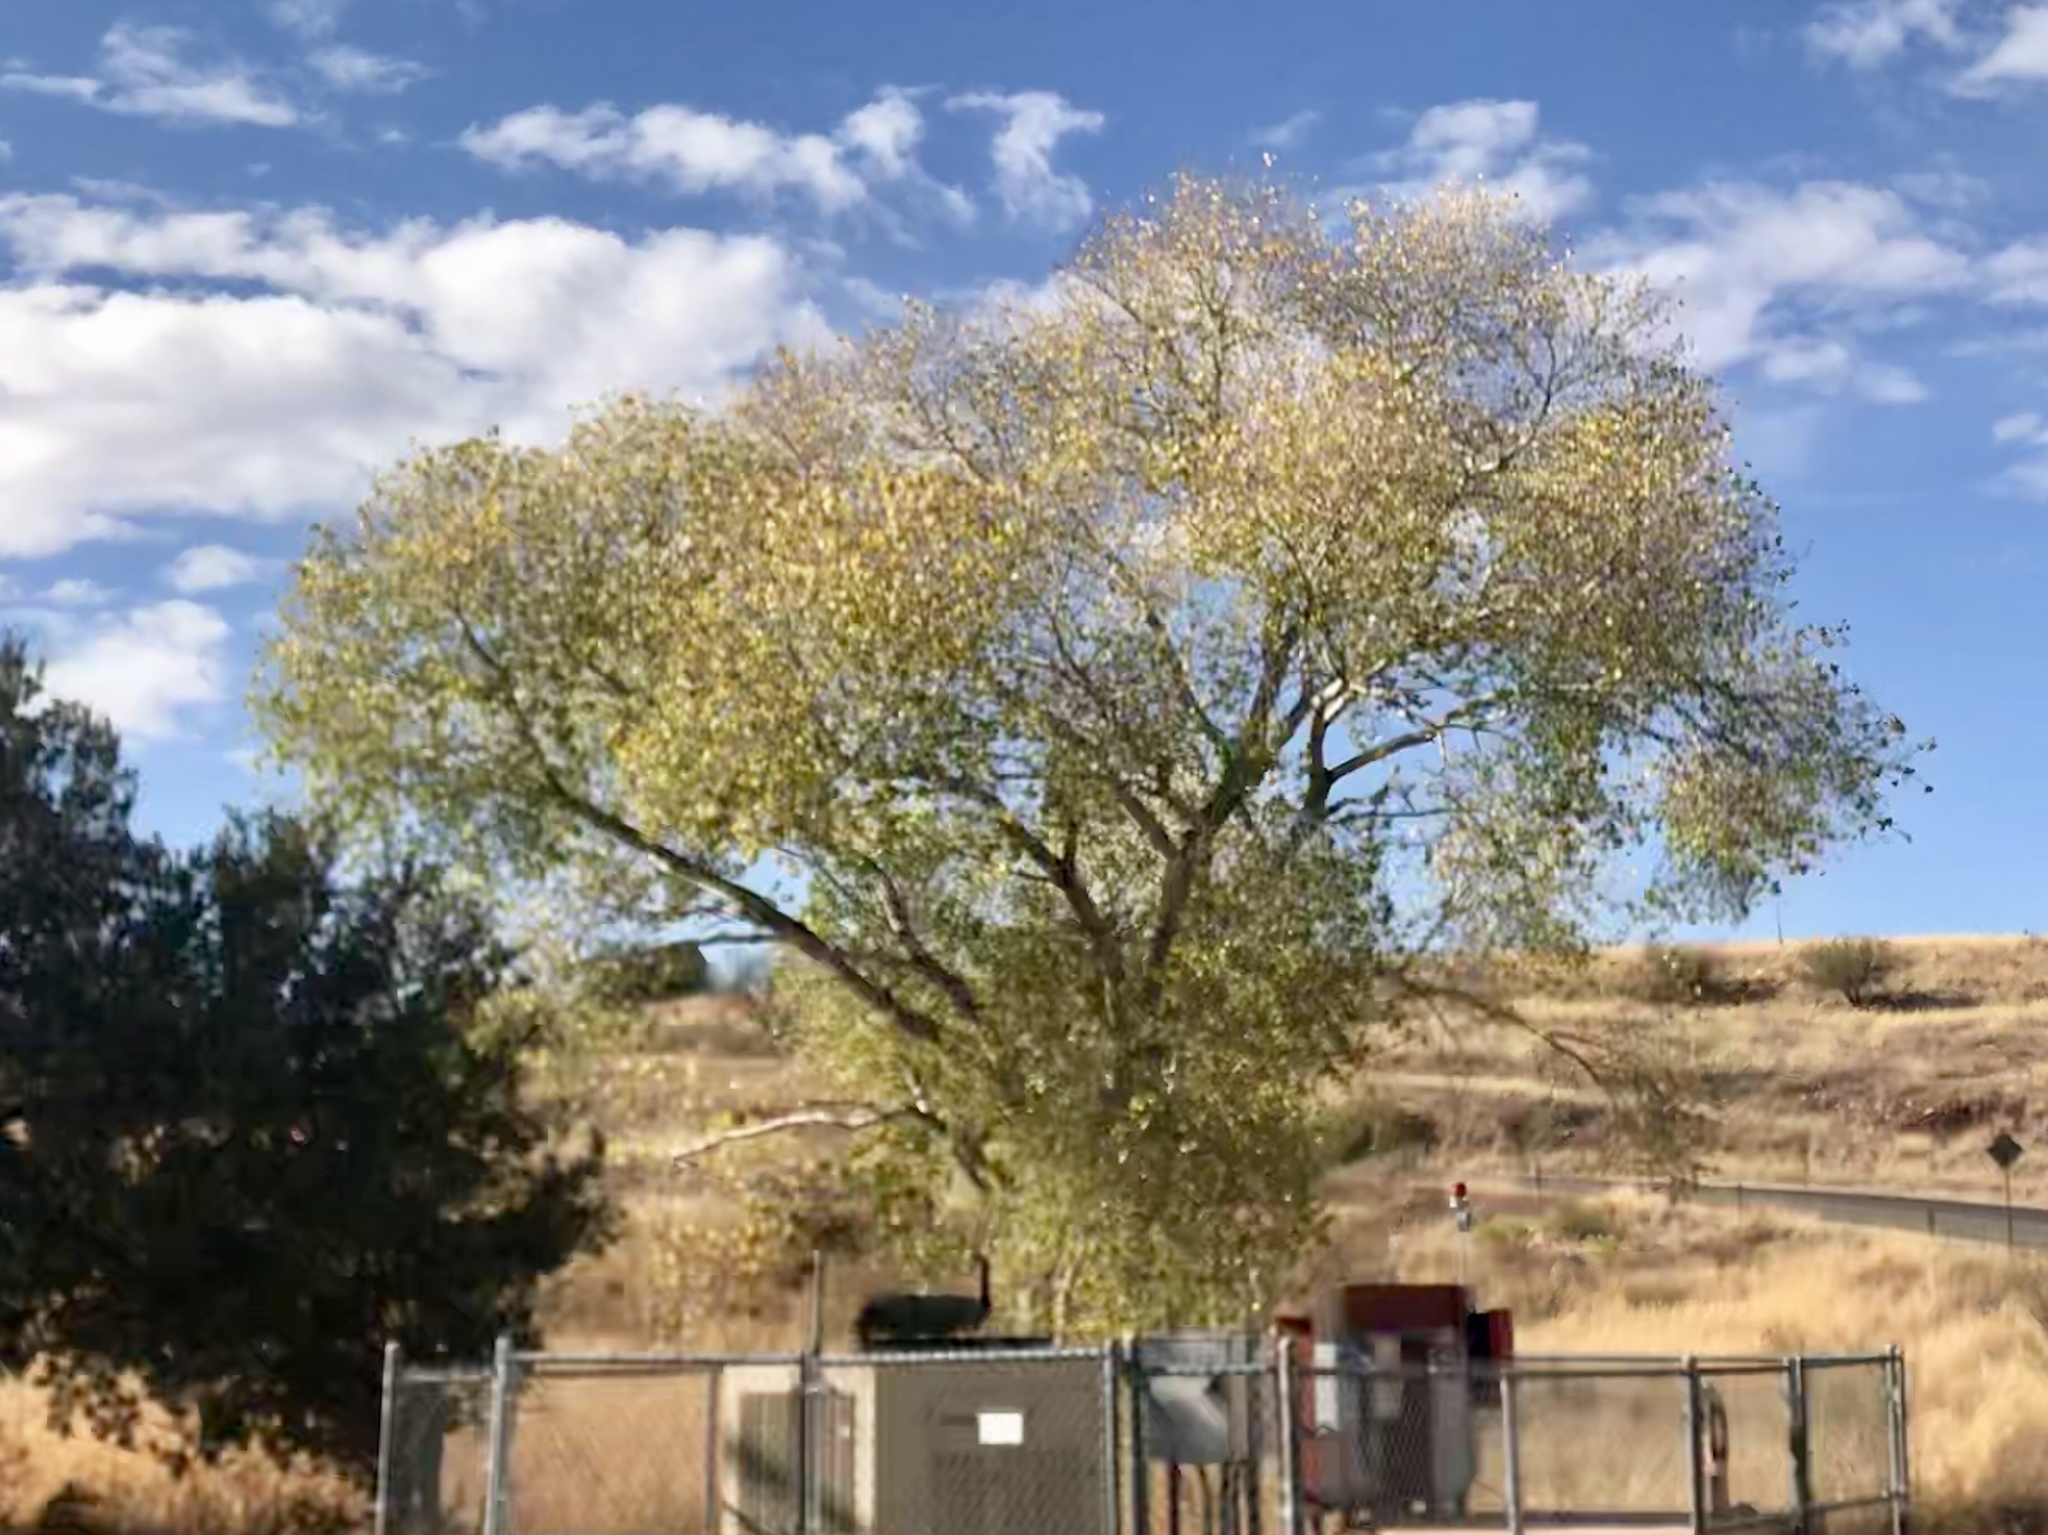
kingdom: Plantae
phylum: Tracheophyta
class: Magnoliopsida
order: Malpighiales
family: Salicaceae
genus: Populus
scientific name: Populus fremontii
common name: Fremont's cottonwood
